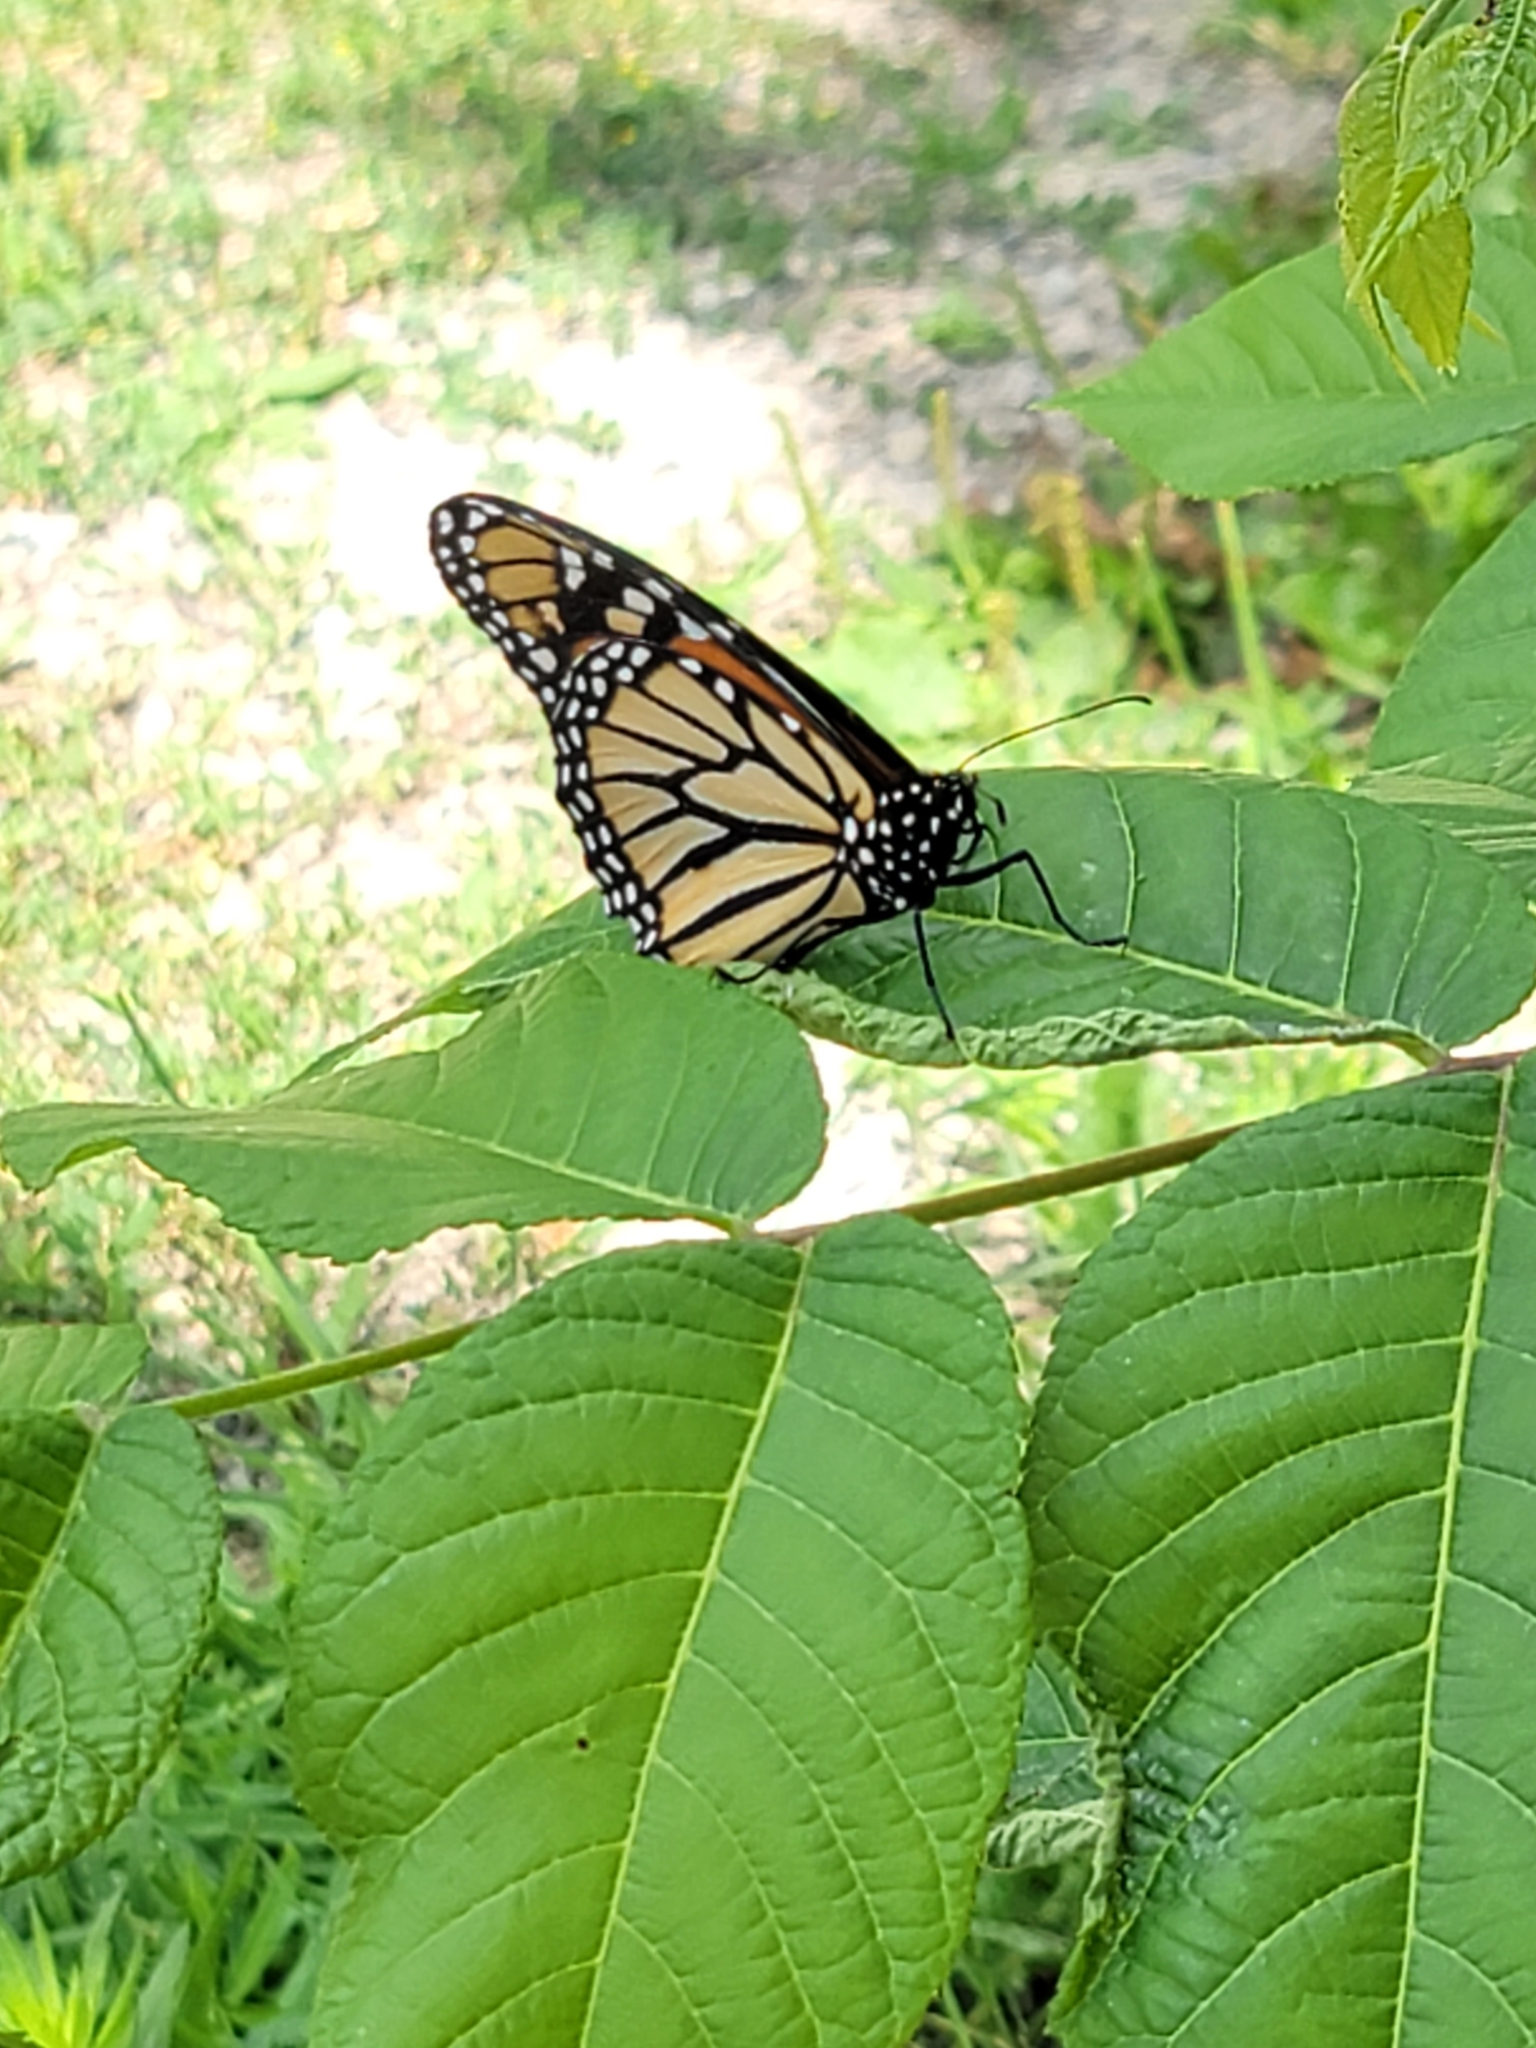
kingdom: Animalia
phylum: Arthropoda
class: Insecta
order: Lepidoptera
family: Nymphalidae
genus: Danaus
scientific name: Danaus plexippus
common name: Monarch
